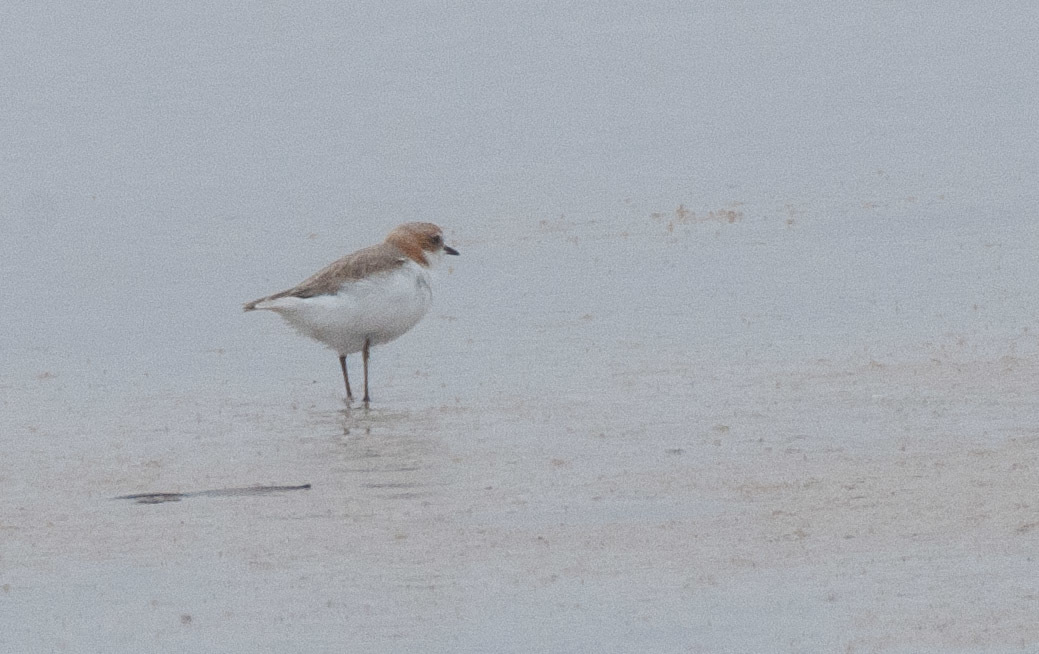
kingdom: Animalia
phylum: Chordata
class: Aves
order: Charadriiformes
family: Charadriidae
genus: Anarhynchus
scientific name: Anarhynchus
